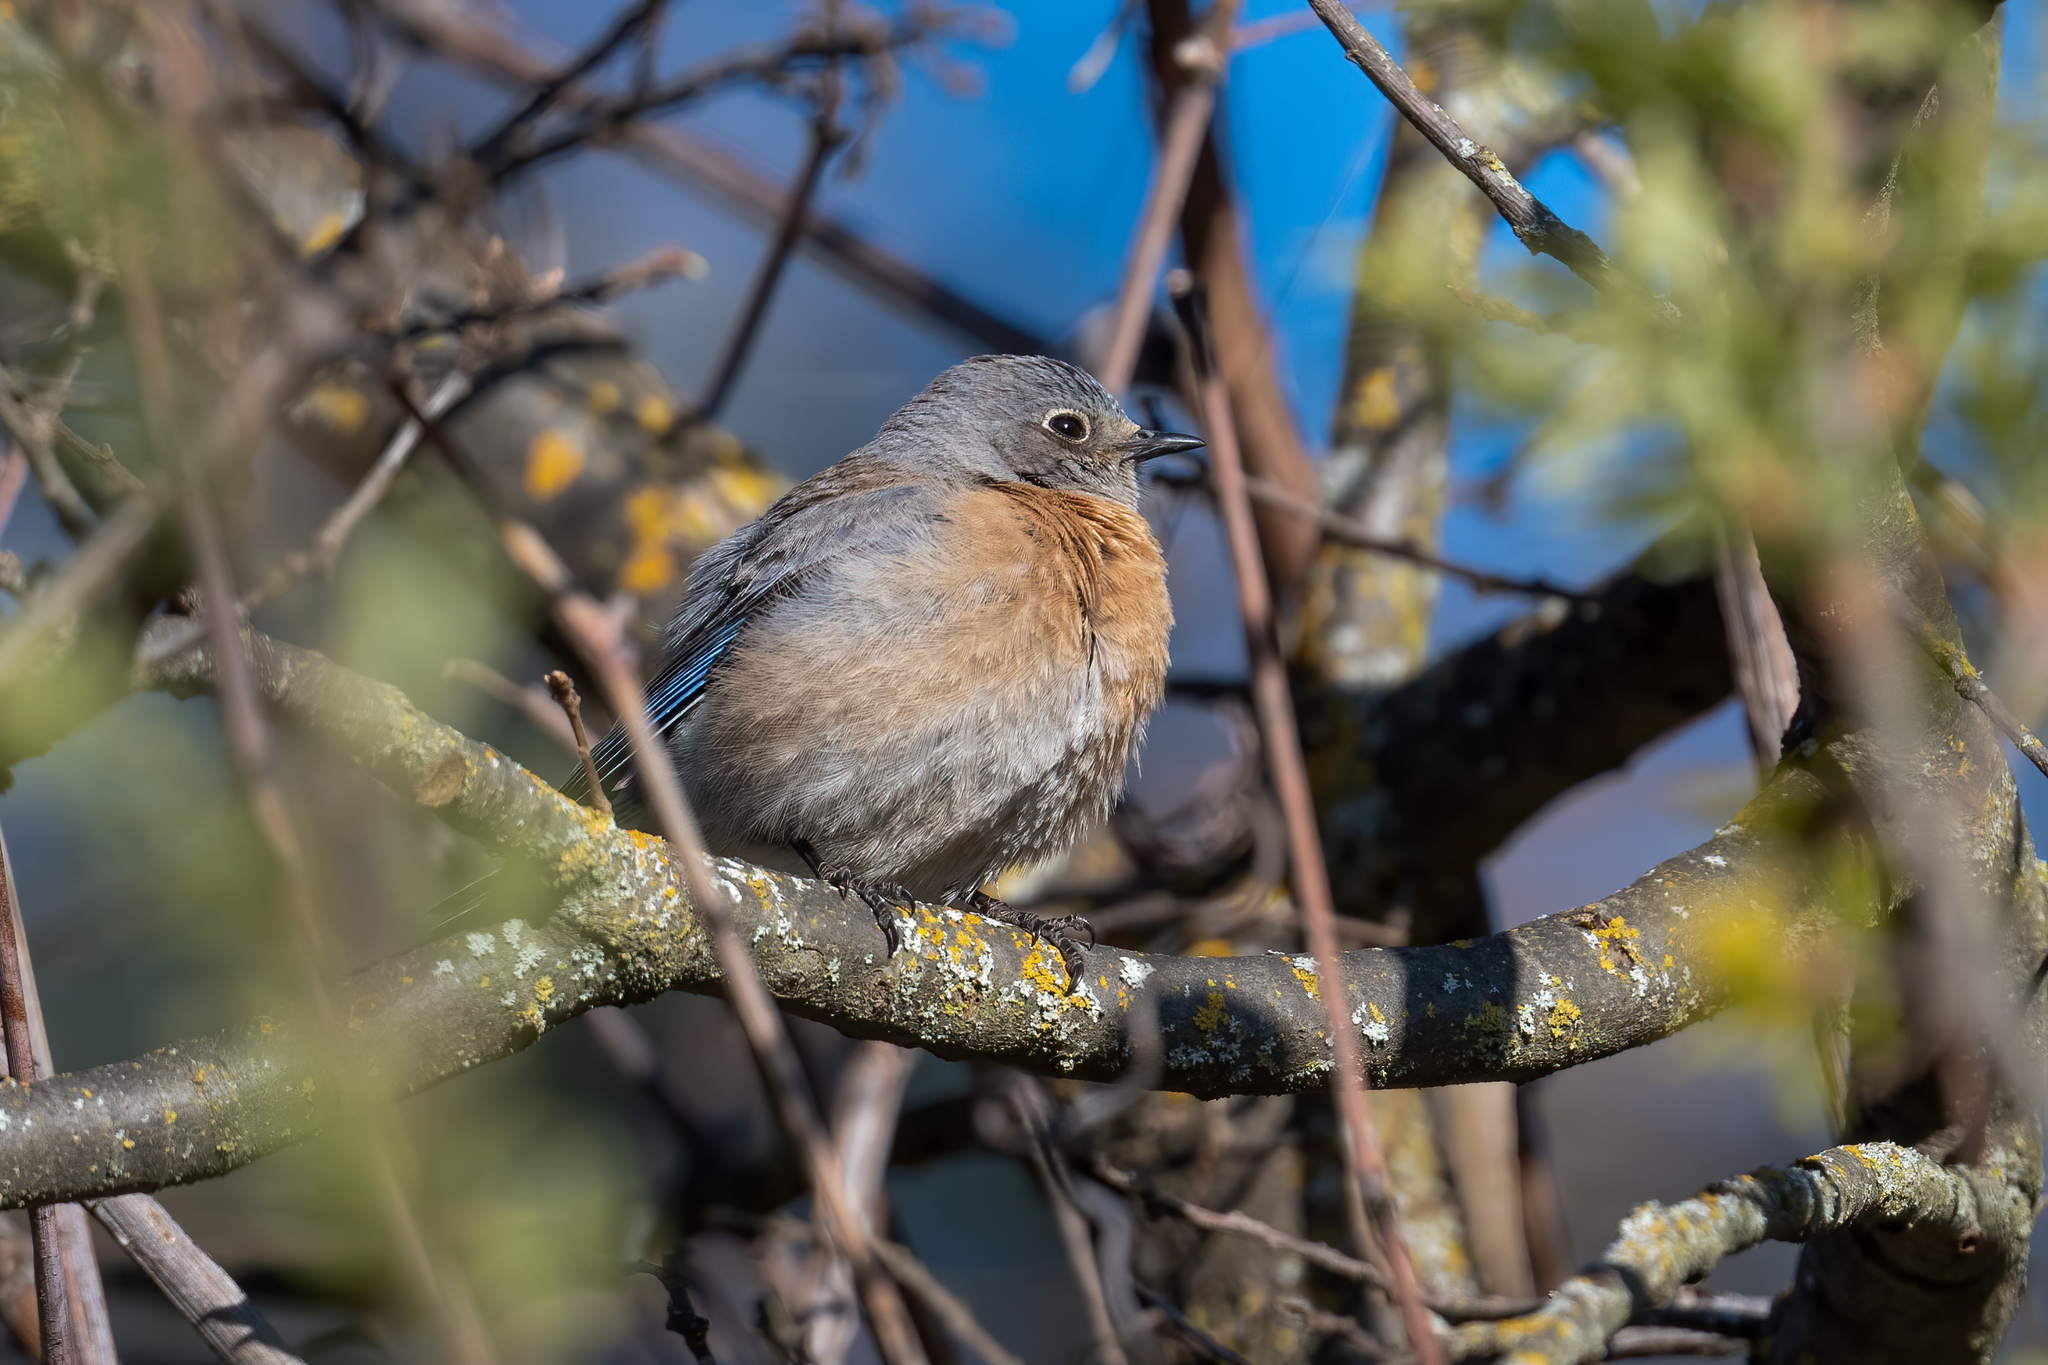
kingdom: Animalia
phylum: Chordata
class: Aves
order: Passeriformes
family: Turdidae
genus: Sialia
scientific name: Sialia mexicana
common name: Western bluebird
